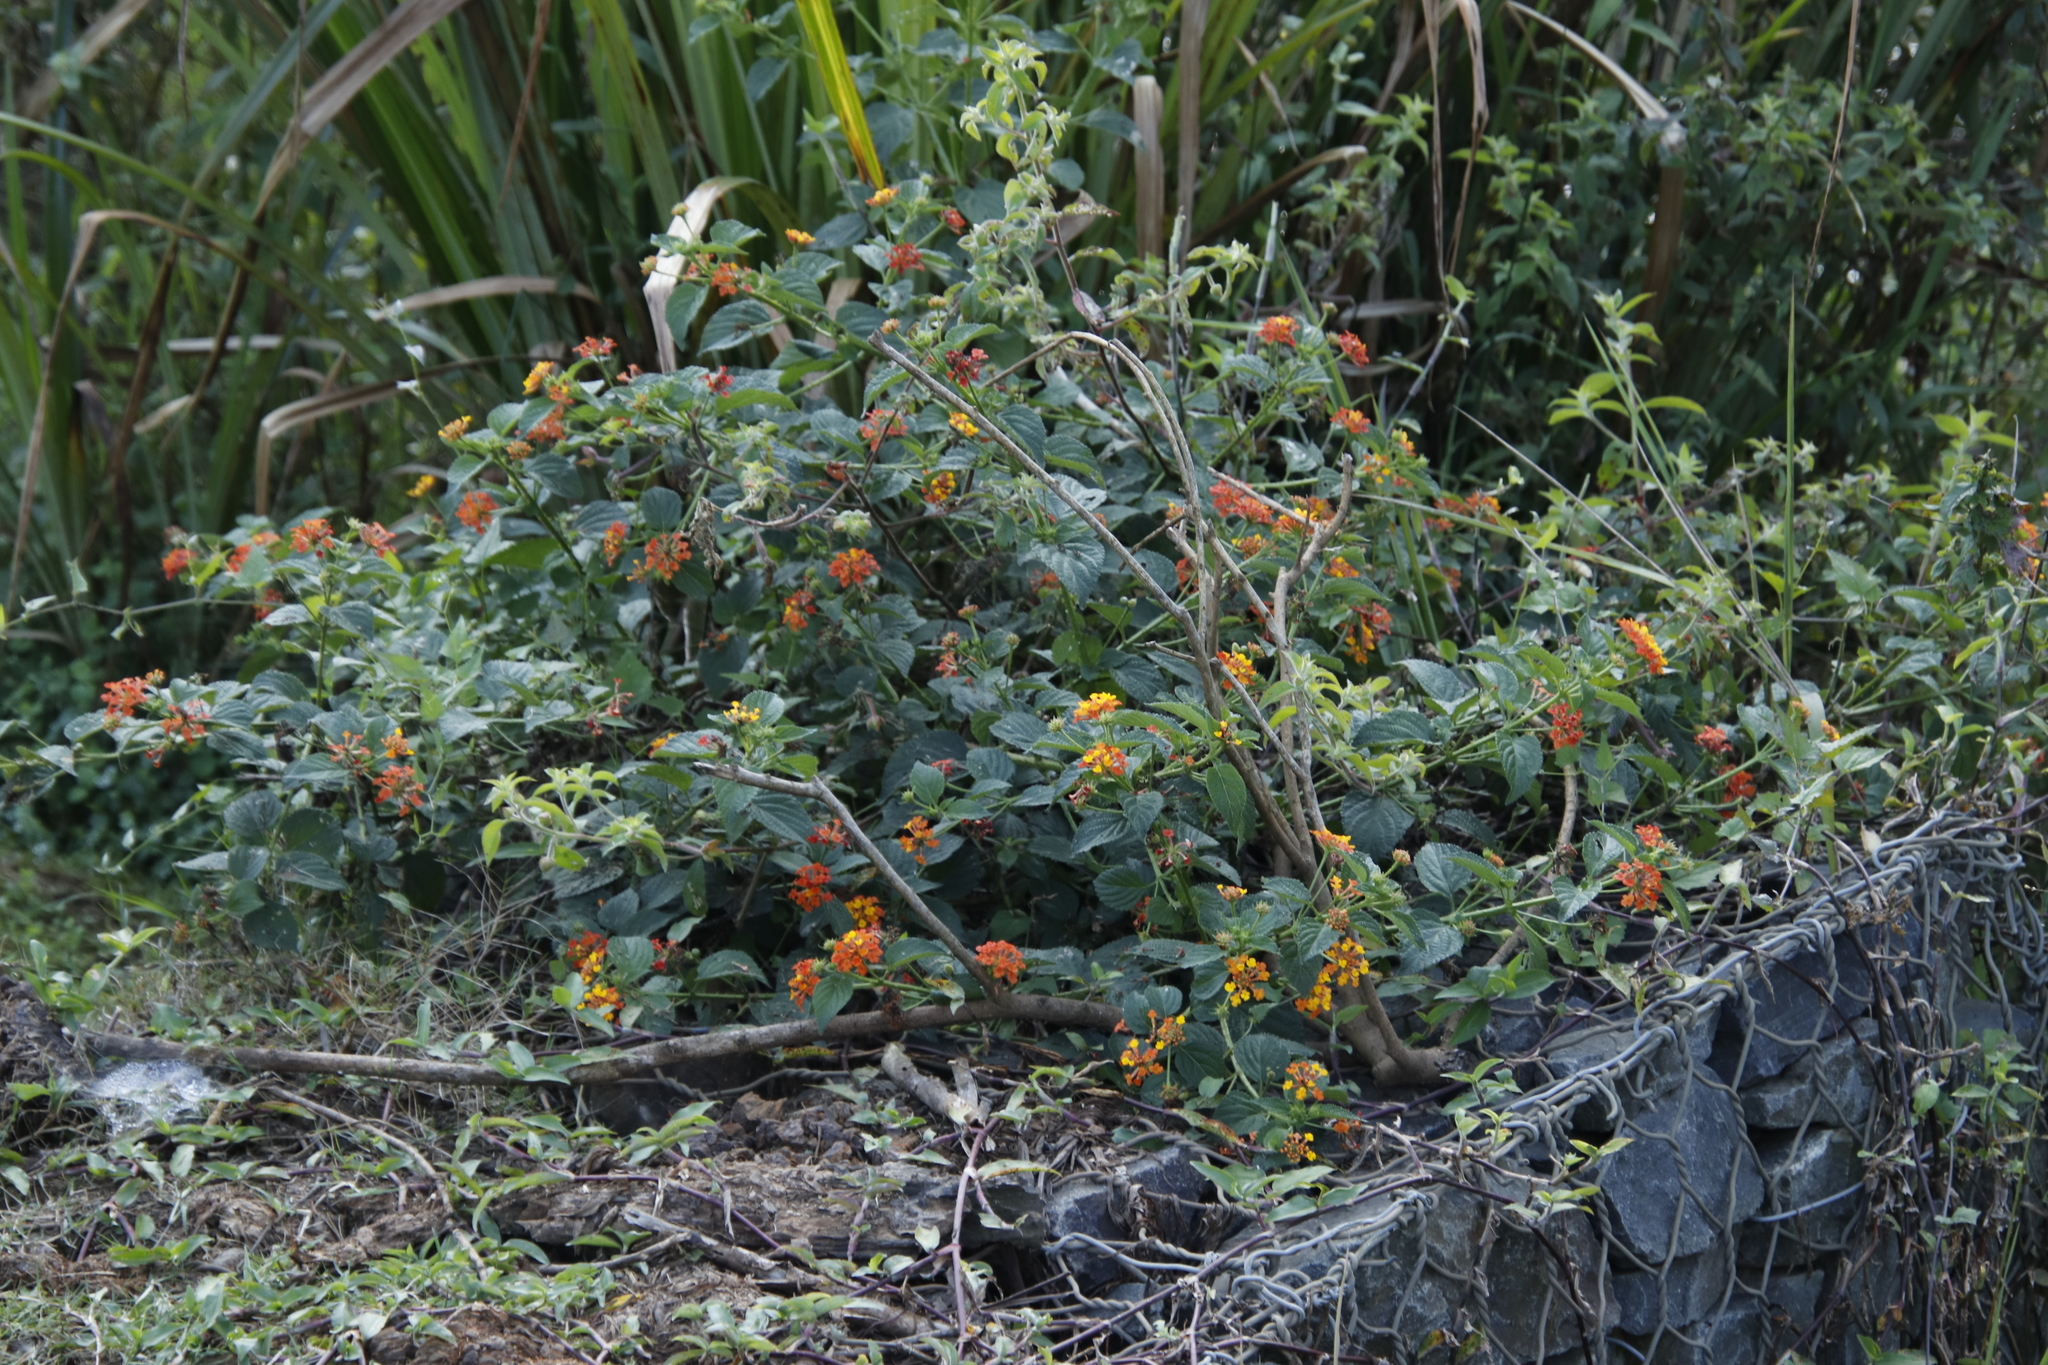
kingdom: Plantae
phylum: Tracheophyta
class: Magnoliopsida
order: Lamiales
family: Verbenaceae
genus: Lantana
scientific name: Lantana camara
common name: Lantana
